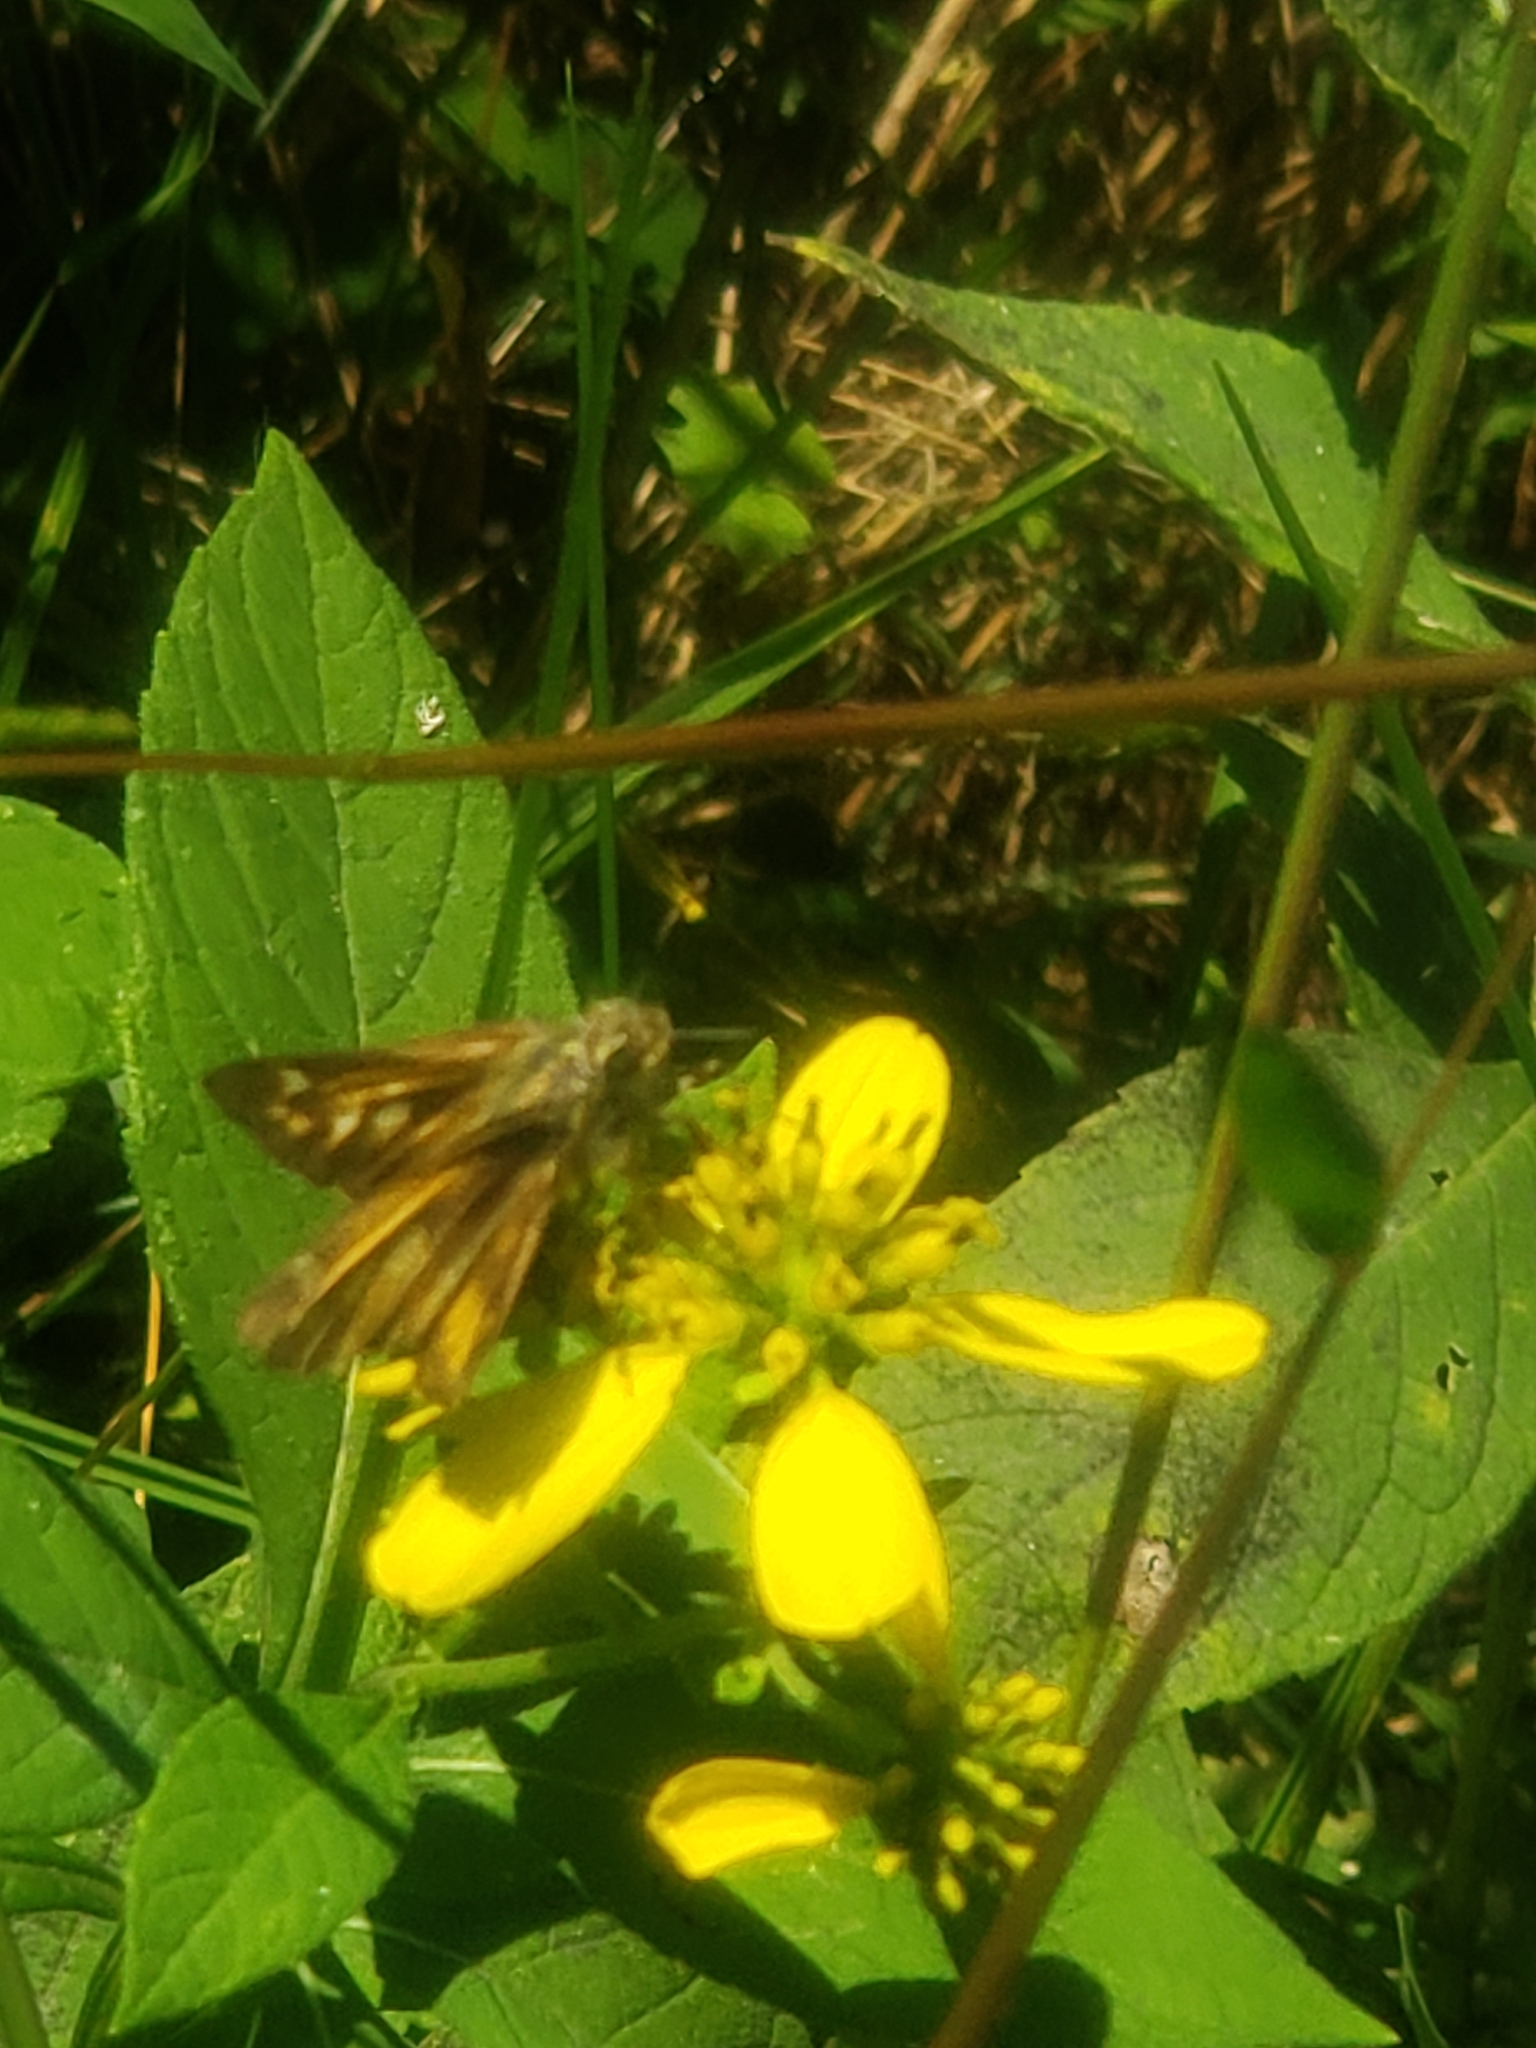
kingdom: Animalia
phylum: Arthropoda
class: Insecta
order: Lepidoptera
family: Hesperiidae
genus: Atalopedes
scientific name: Atalopedes
